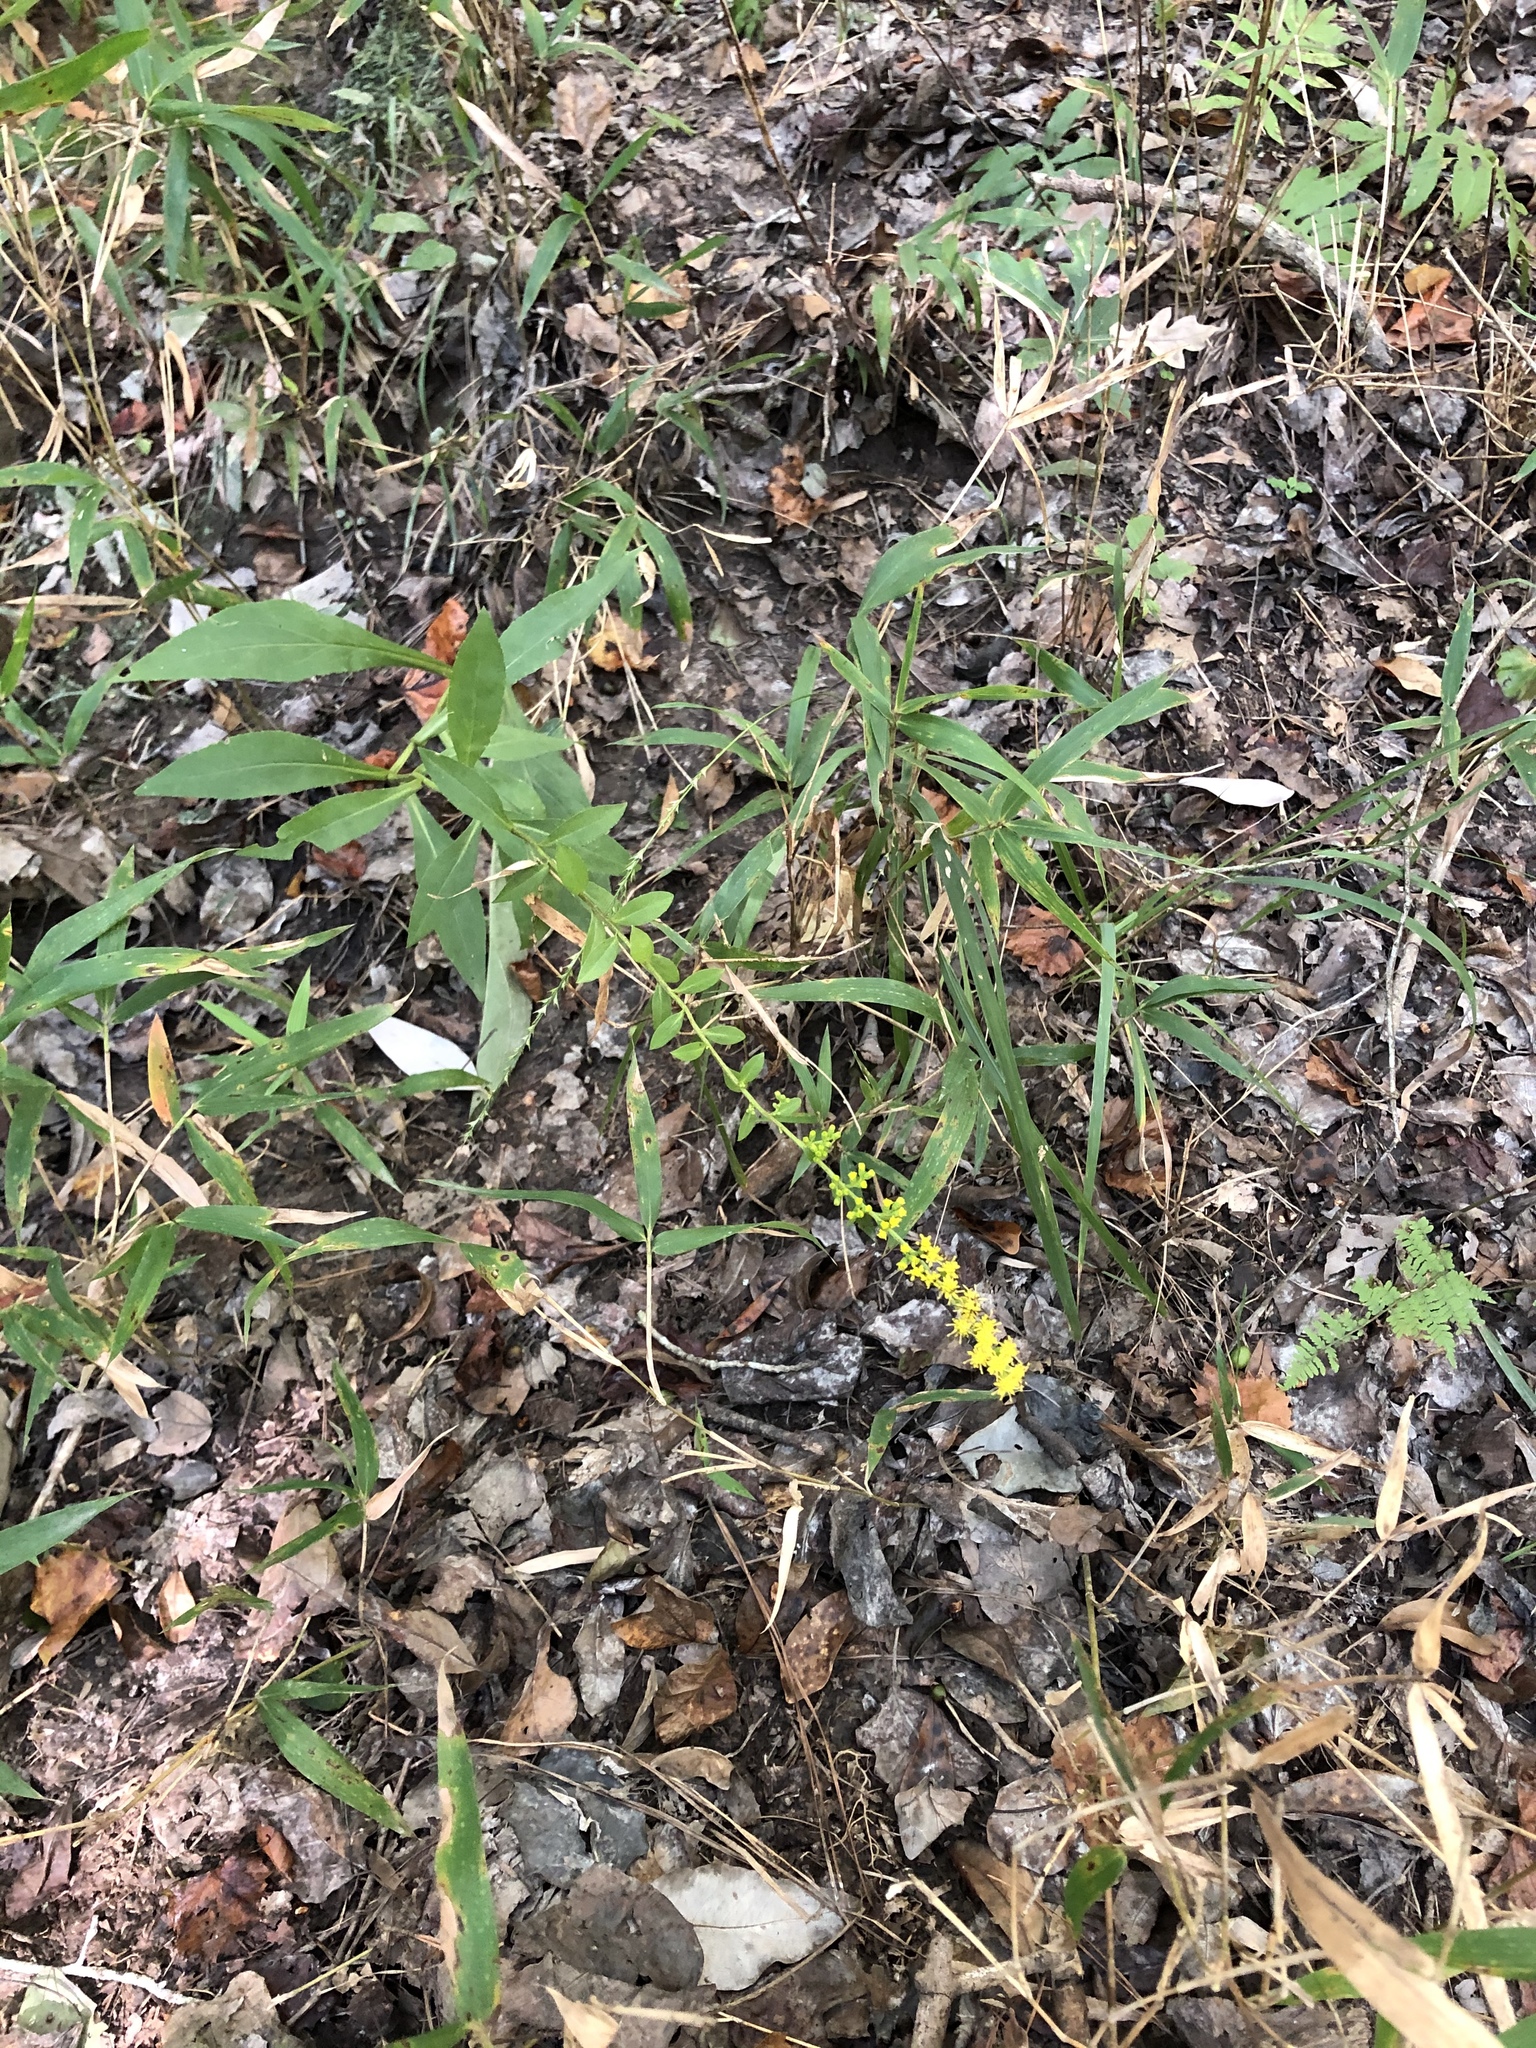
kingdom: Plantae
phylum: Tracheophyta
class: Magnoliopsida
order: Asterales
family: Asteraceae
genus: Solidago
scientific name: Solidago patula
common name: Rough-leaf goldenrod
